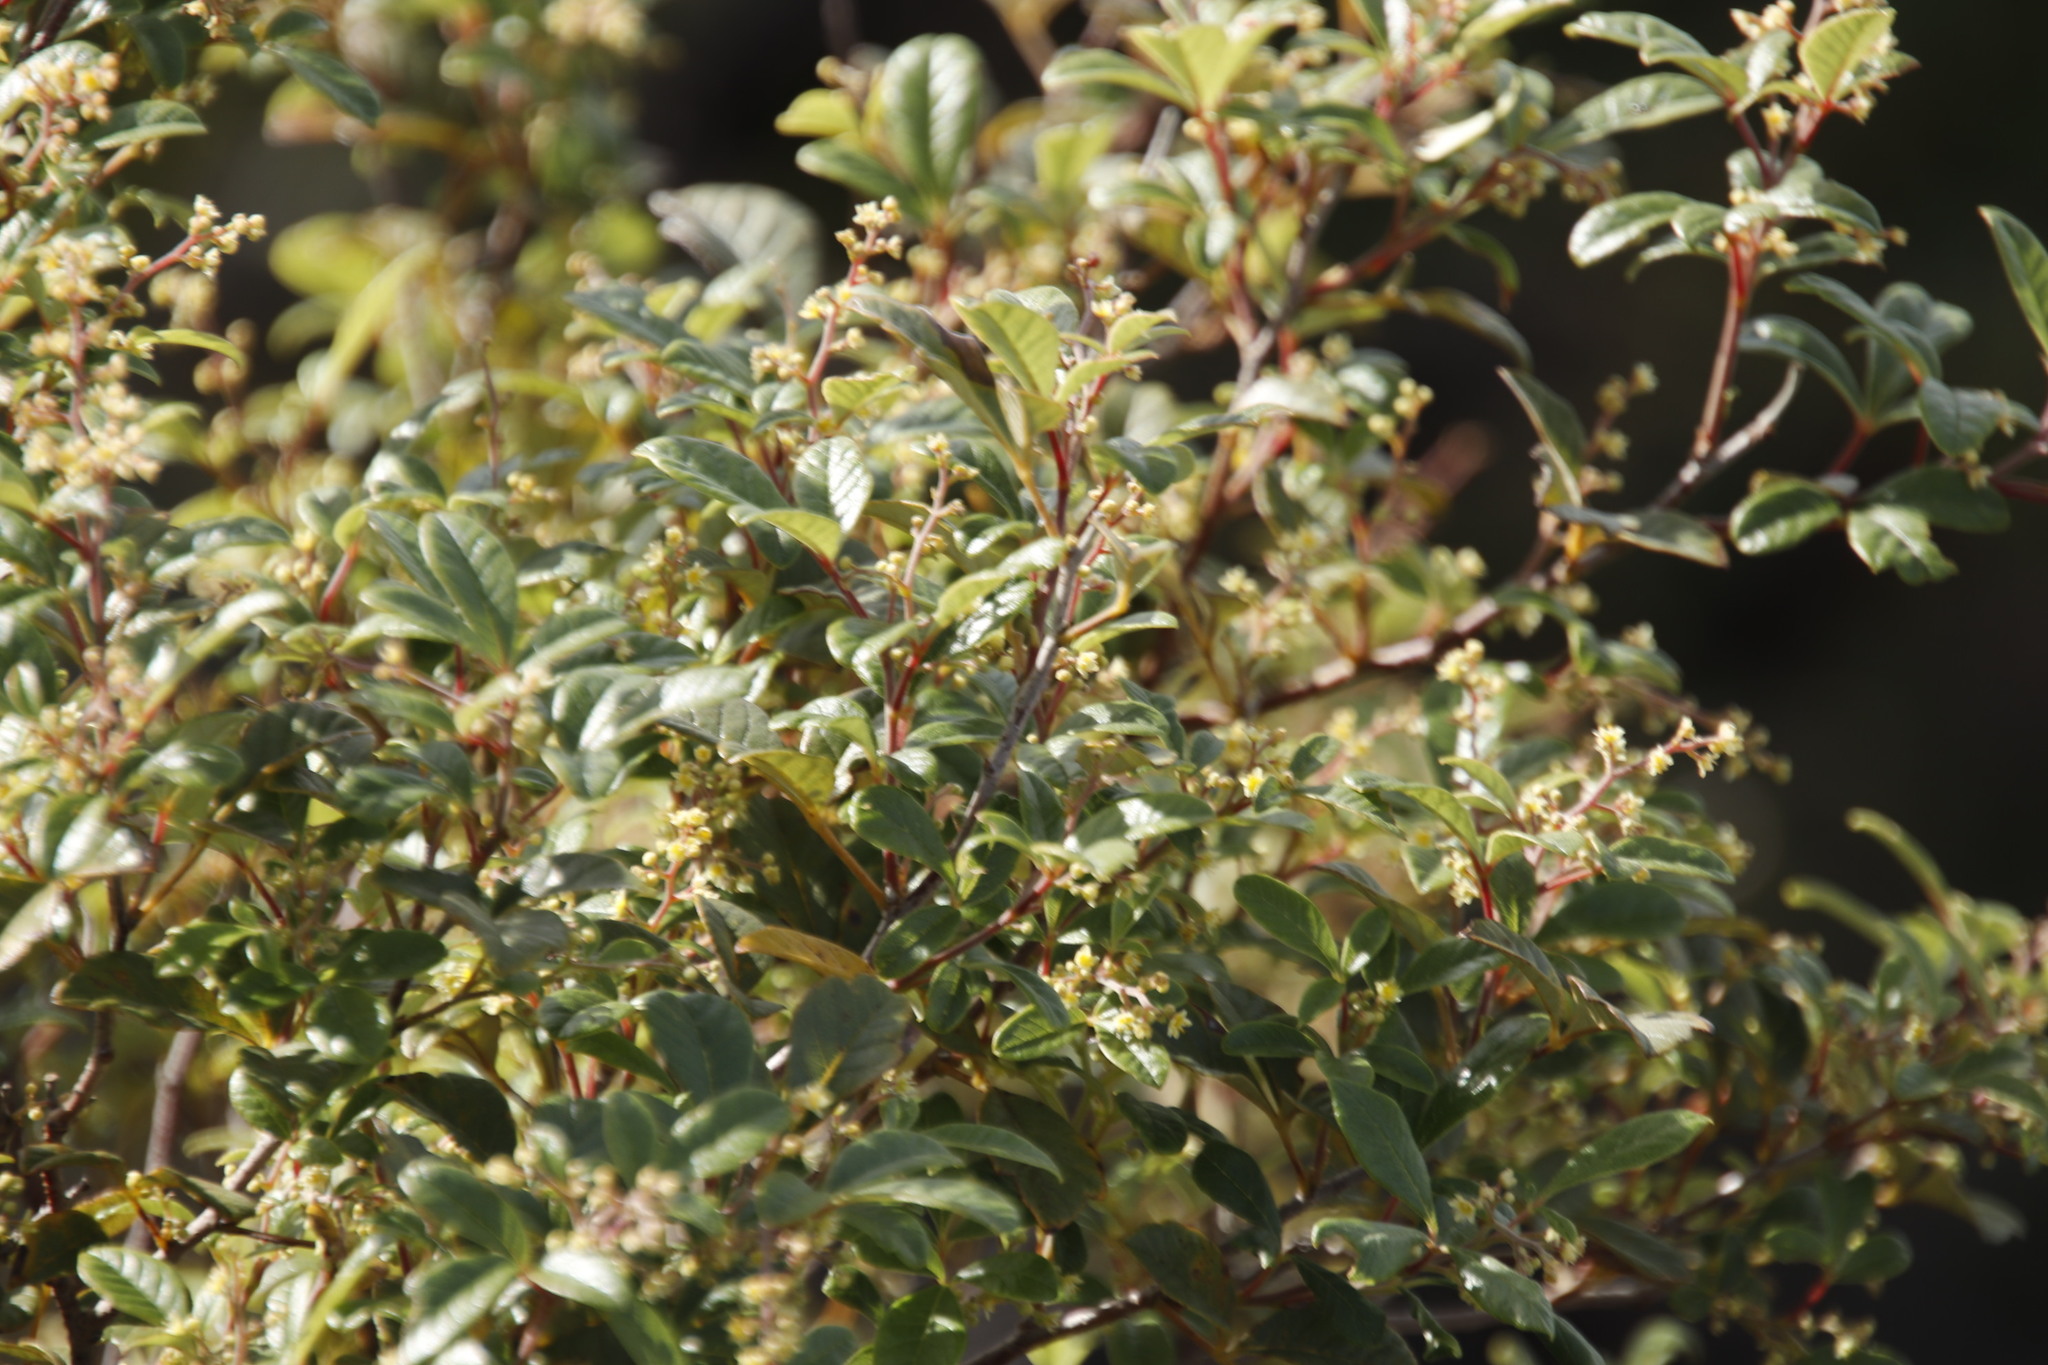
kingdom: Plantae
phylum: Tracheophyta
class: Magnoliopsida
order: Sapindales
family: Anacardiaceae
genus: Searsia
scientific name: Searsia tomentosa
